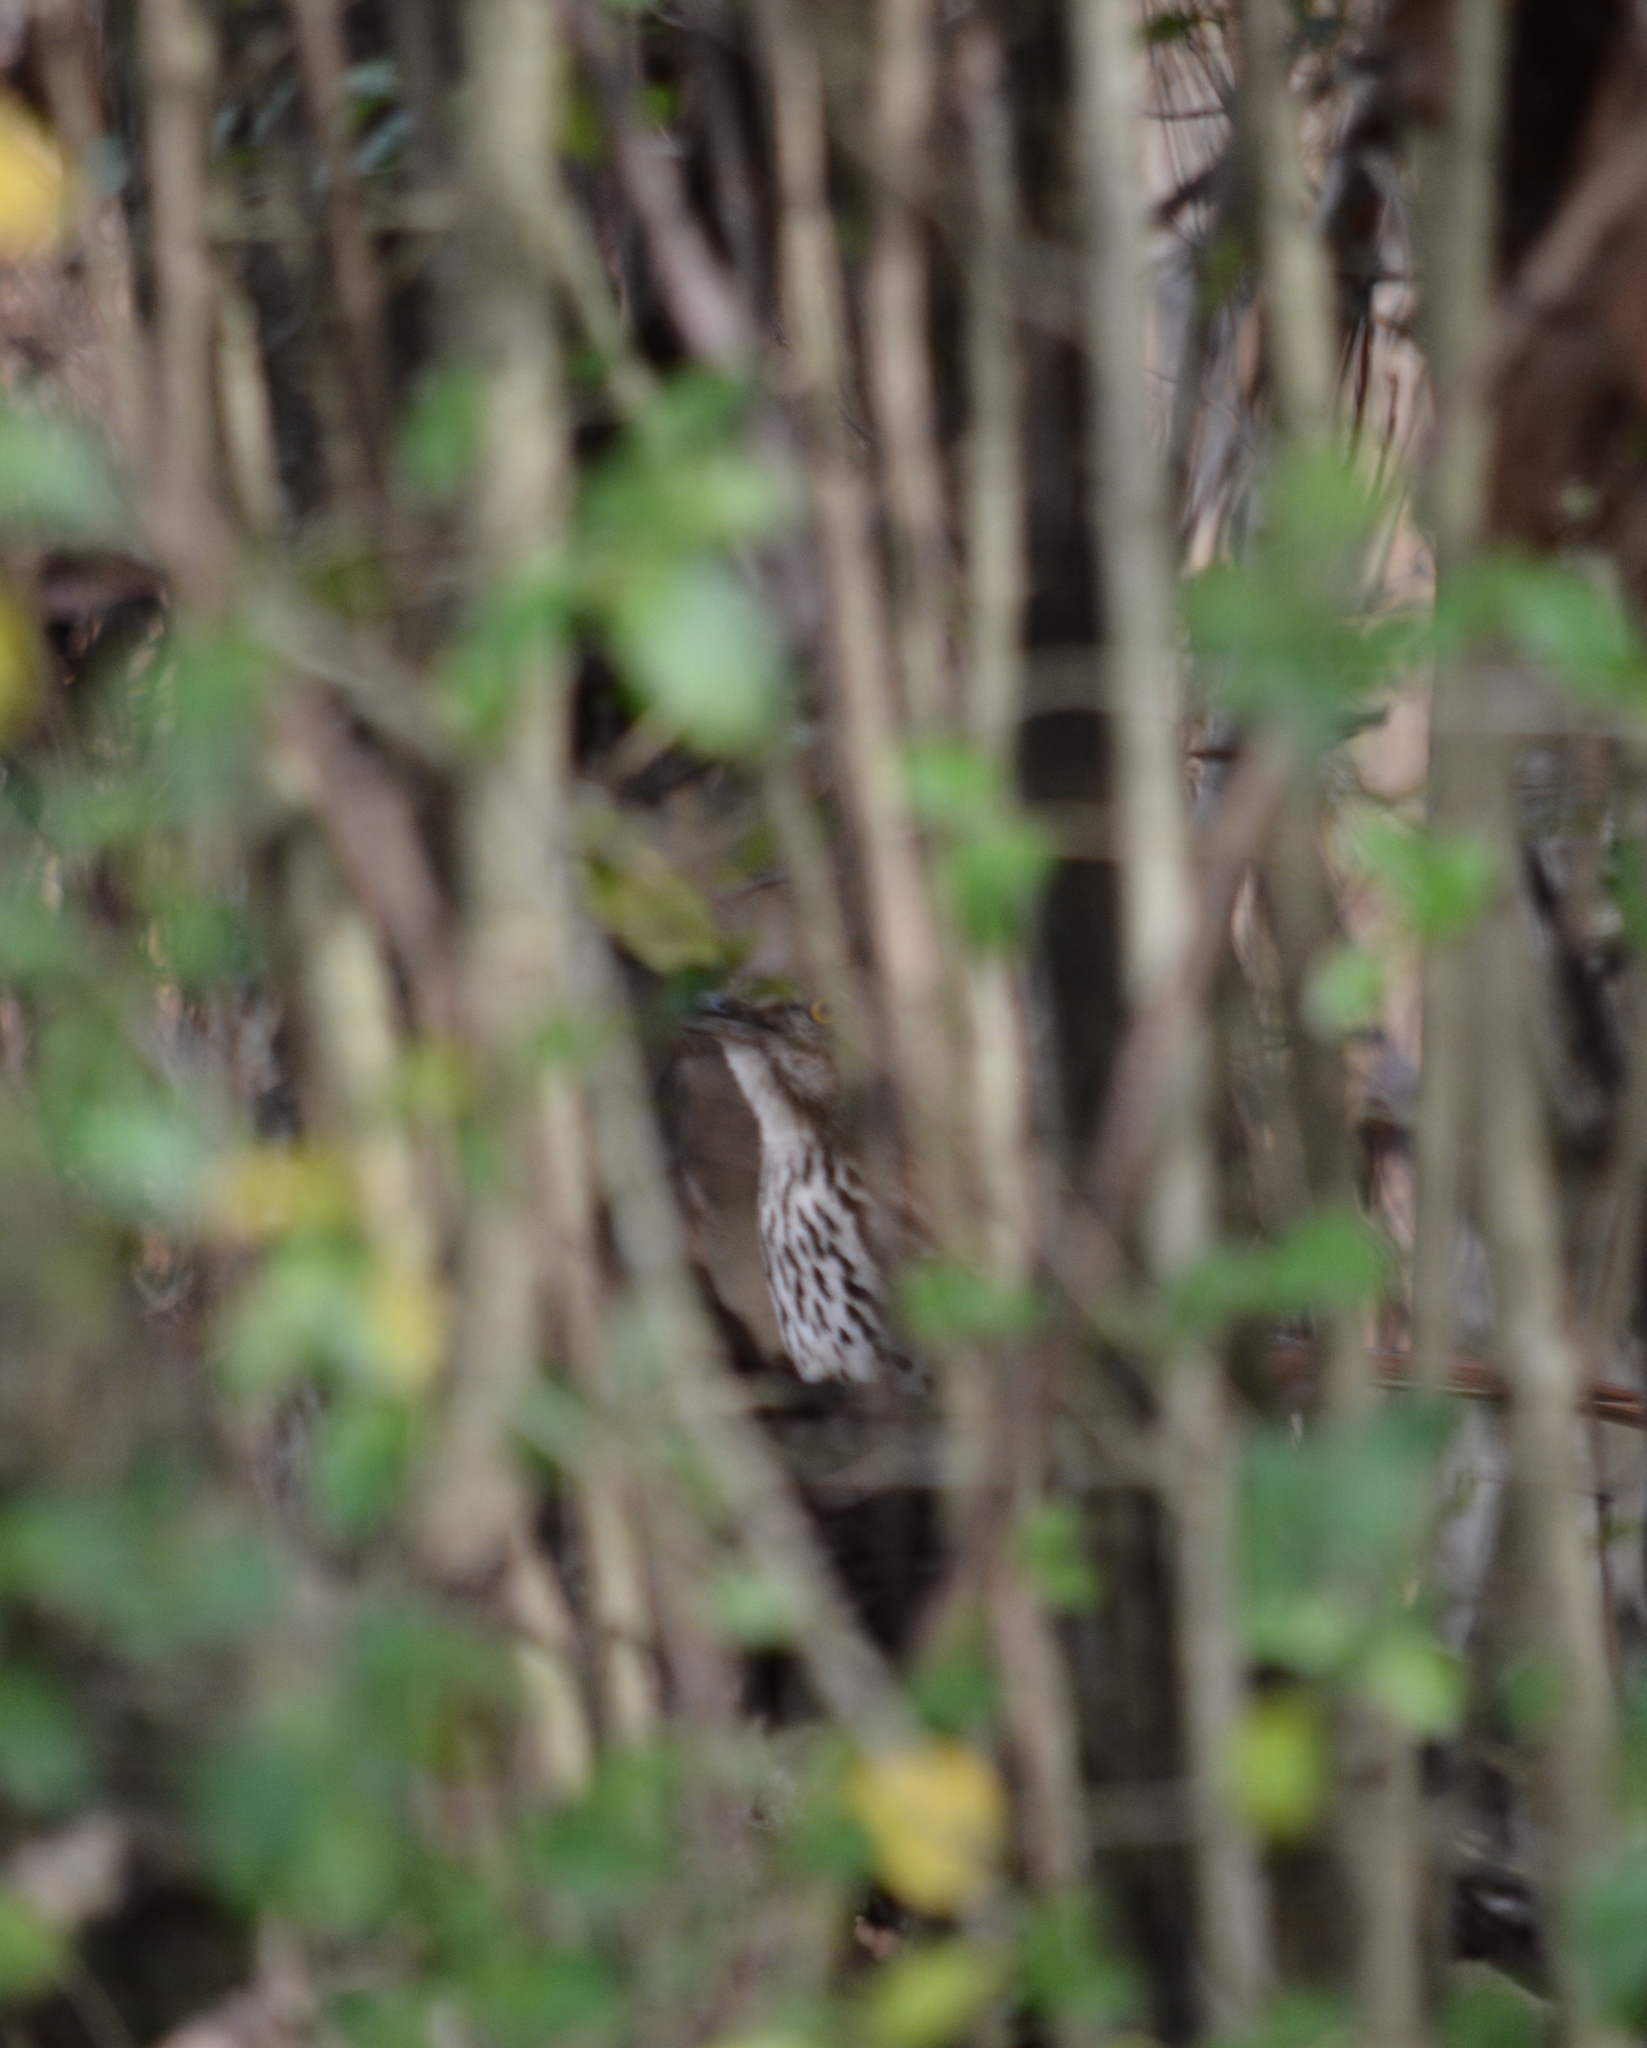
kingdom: Animalia
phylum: Chordata
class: Aves
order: Passeriformes
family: Mimidae
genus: Toxostoma
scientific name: Toxostoma rufum
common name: Brown thrasher
